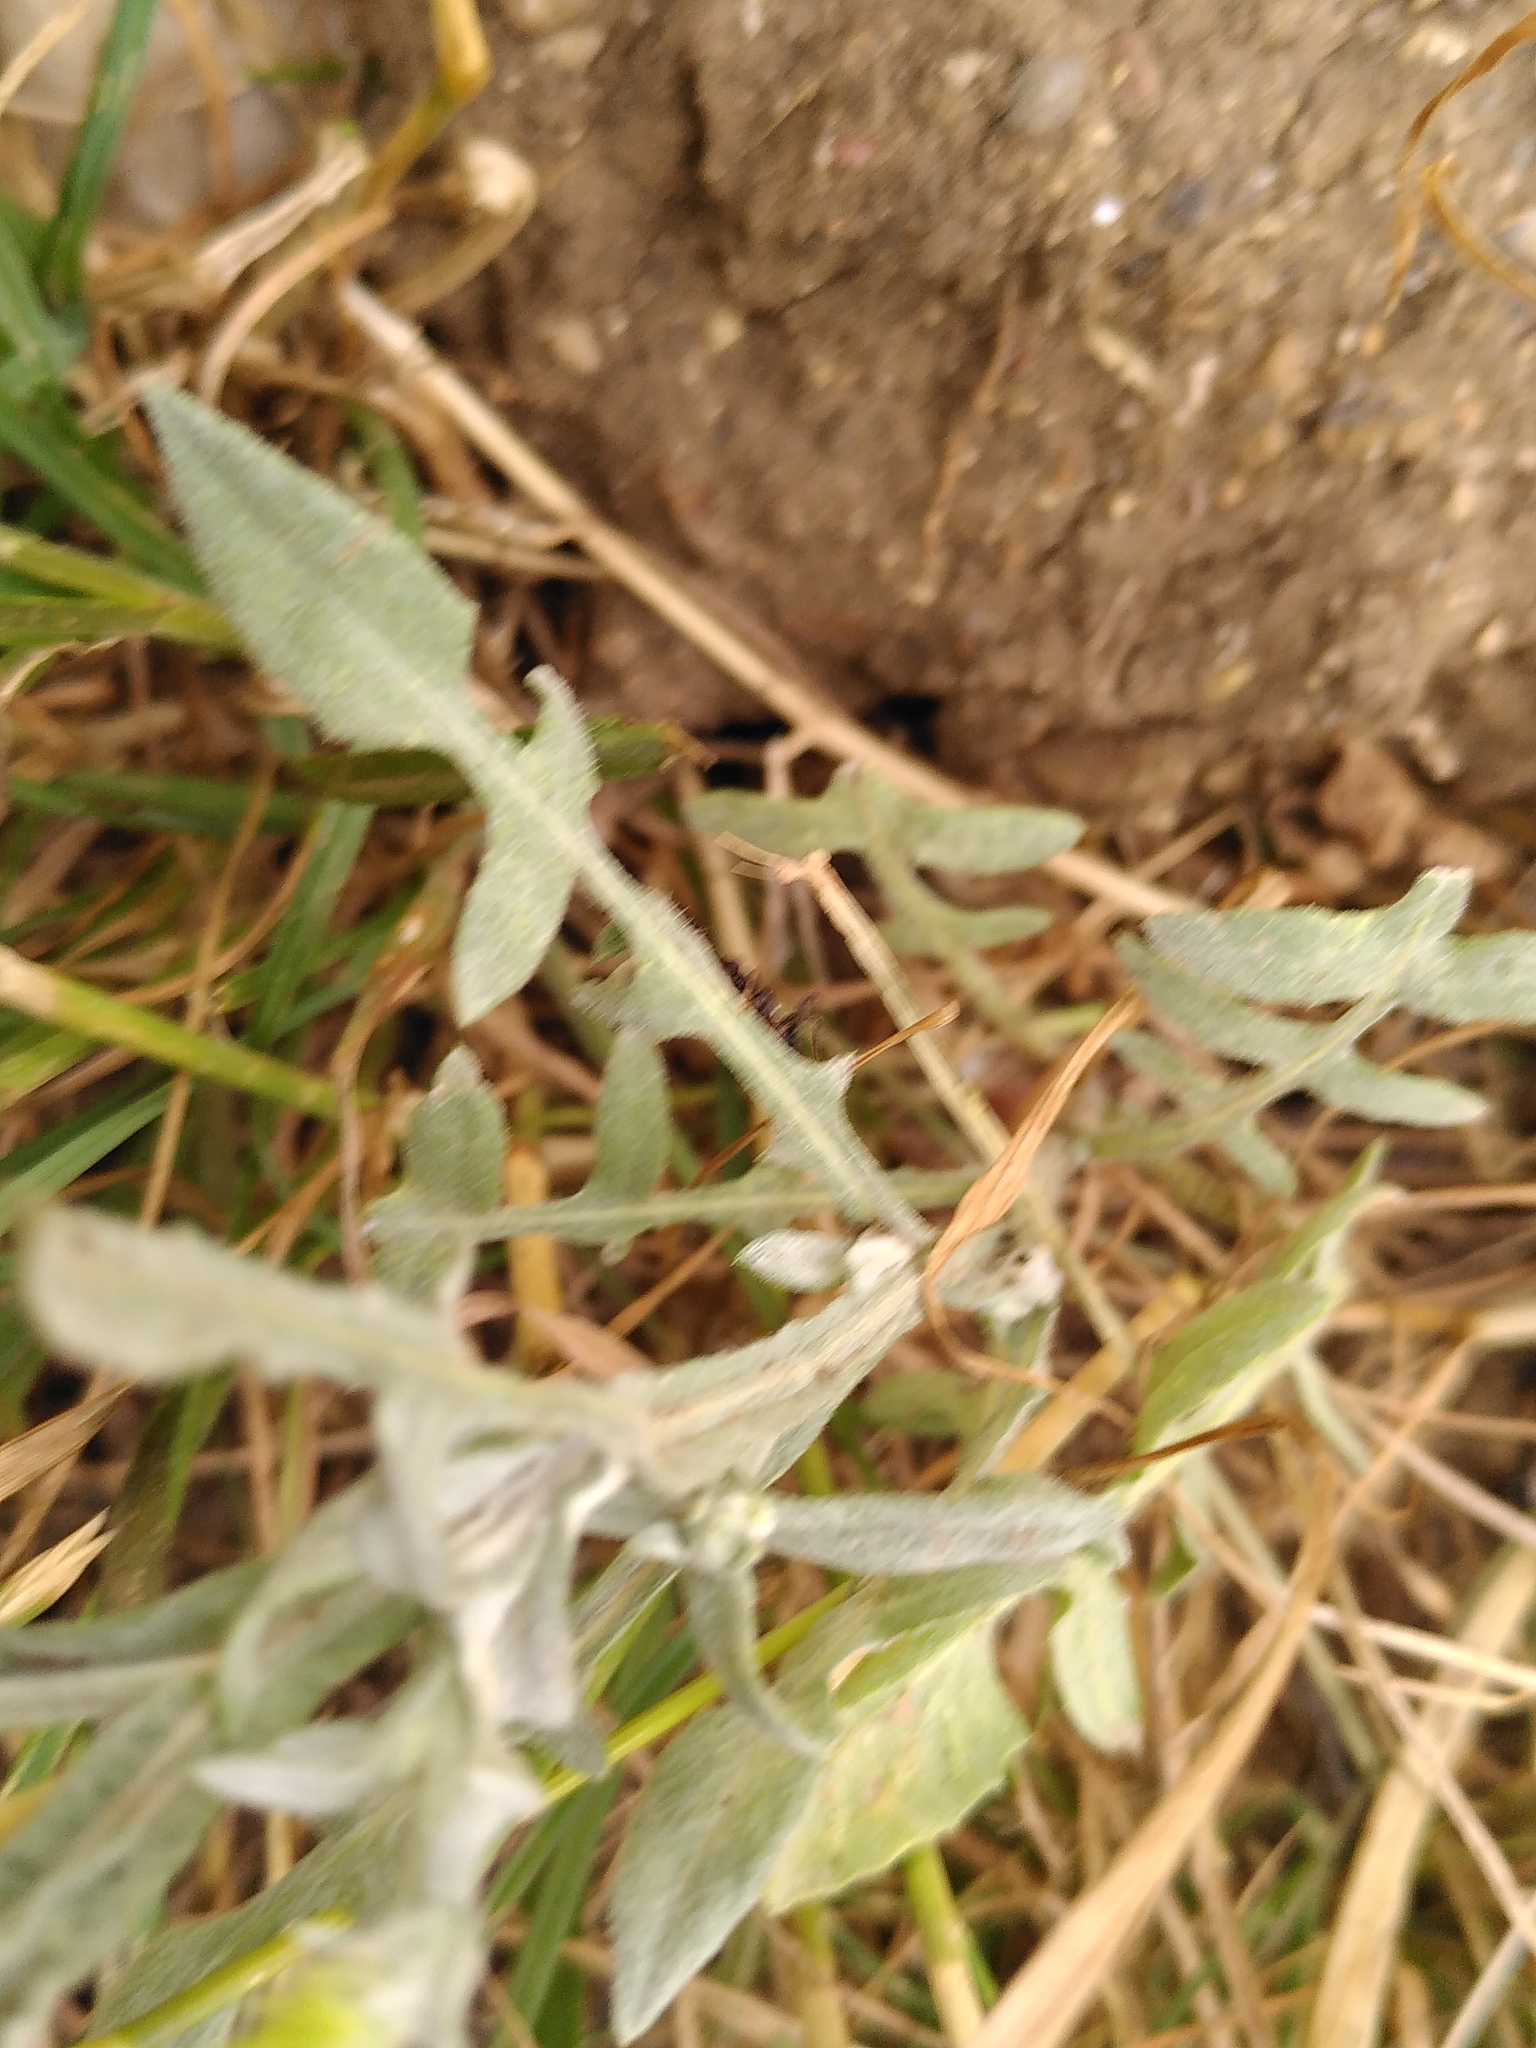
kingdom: Plantae
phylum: Tracheophyta
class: Magnoliopsida
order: Asterales
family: Asteraceae
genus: Centaurea
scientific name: Centaurea solstitialis
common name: Yellow star-thistle
